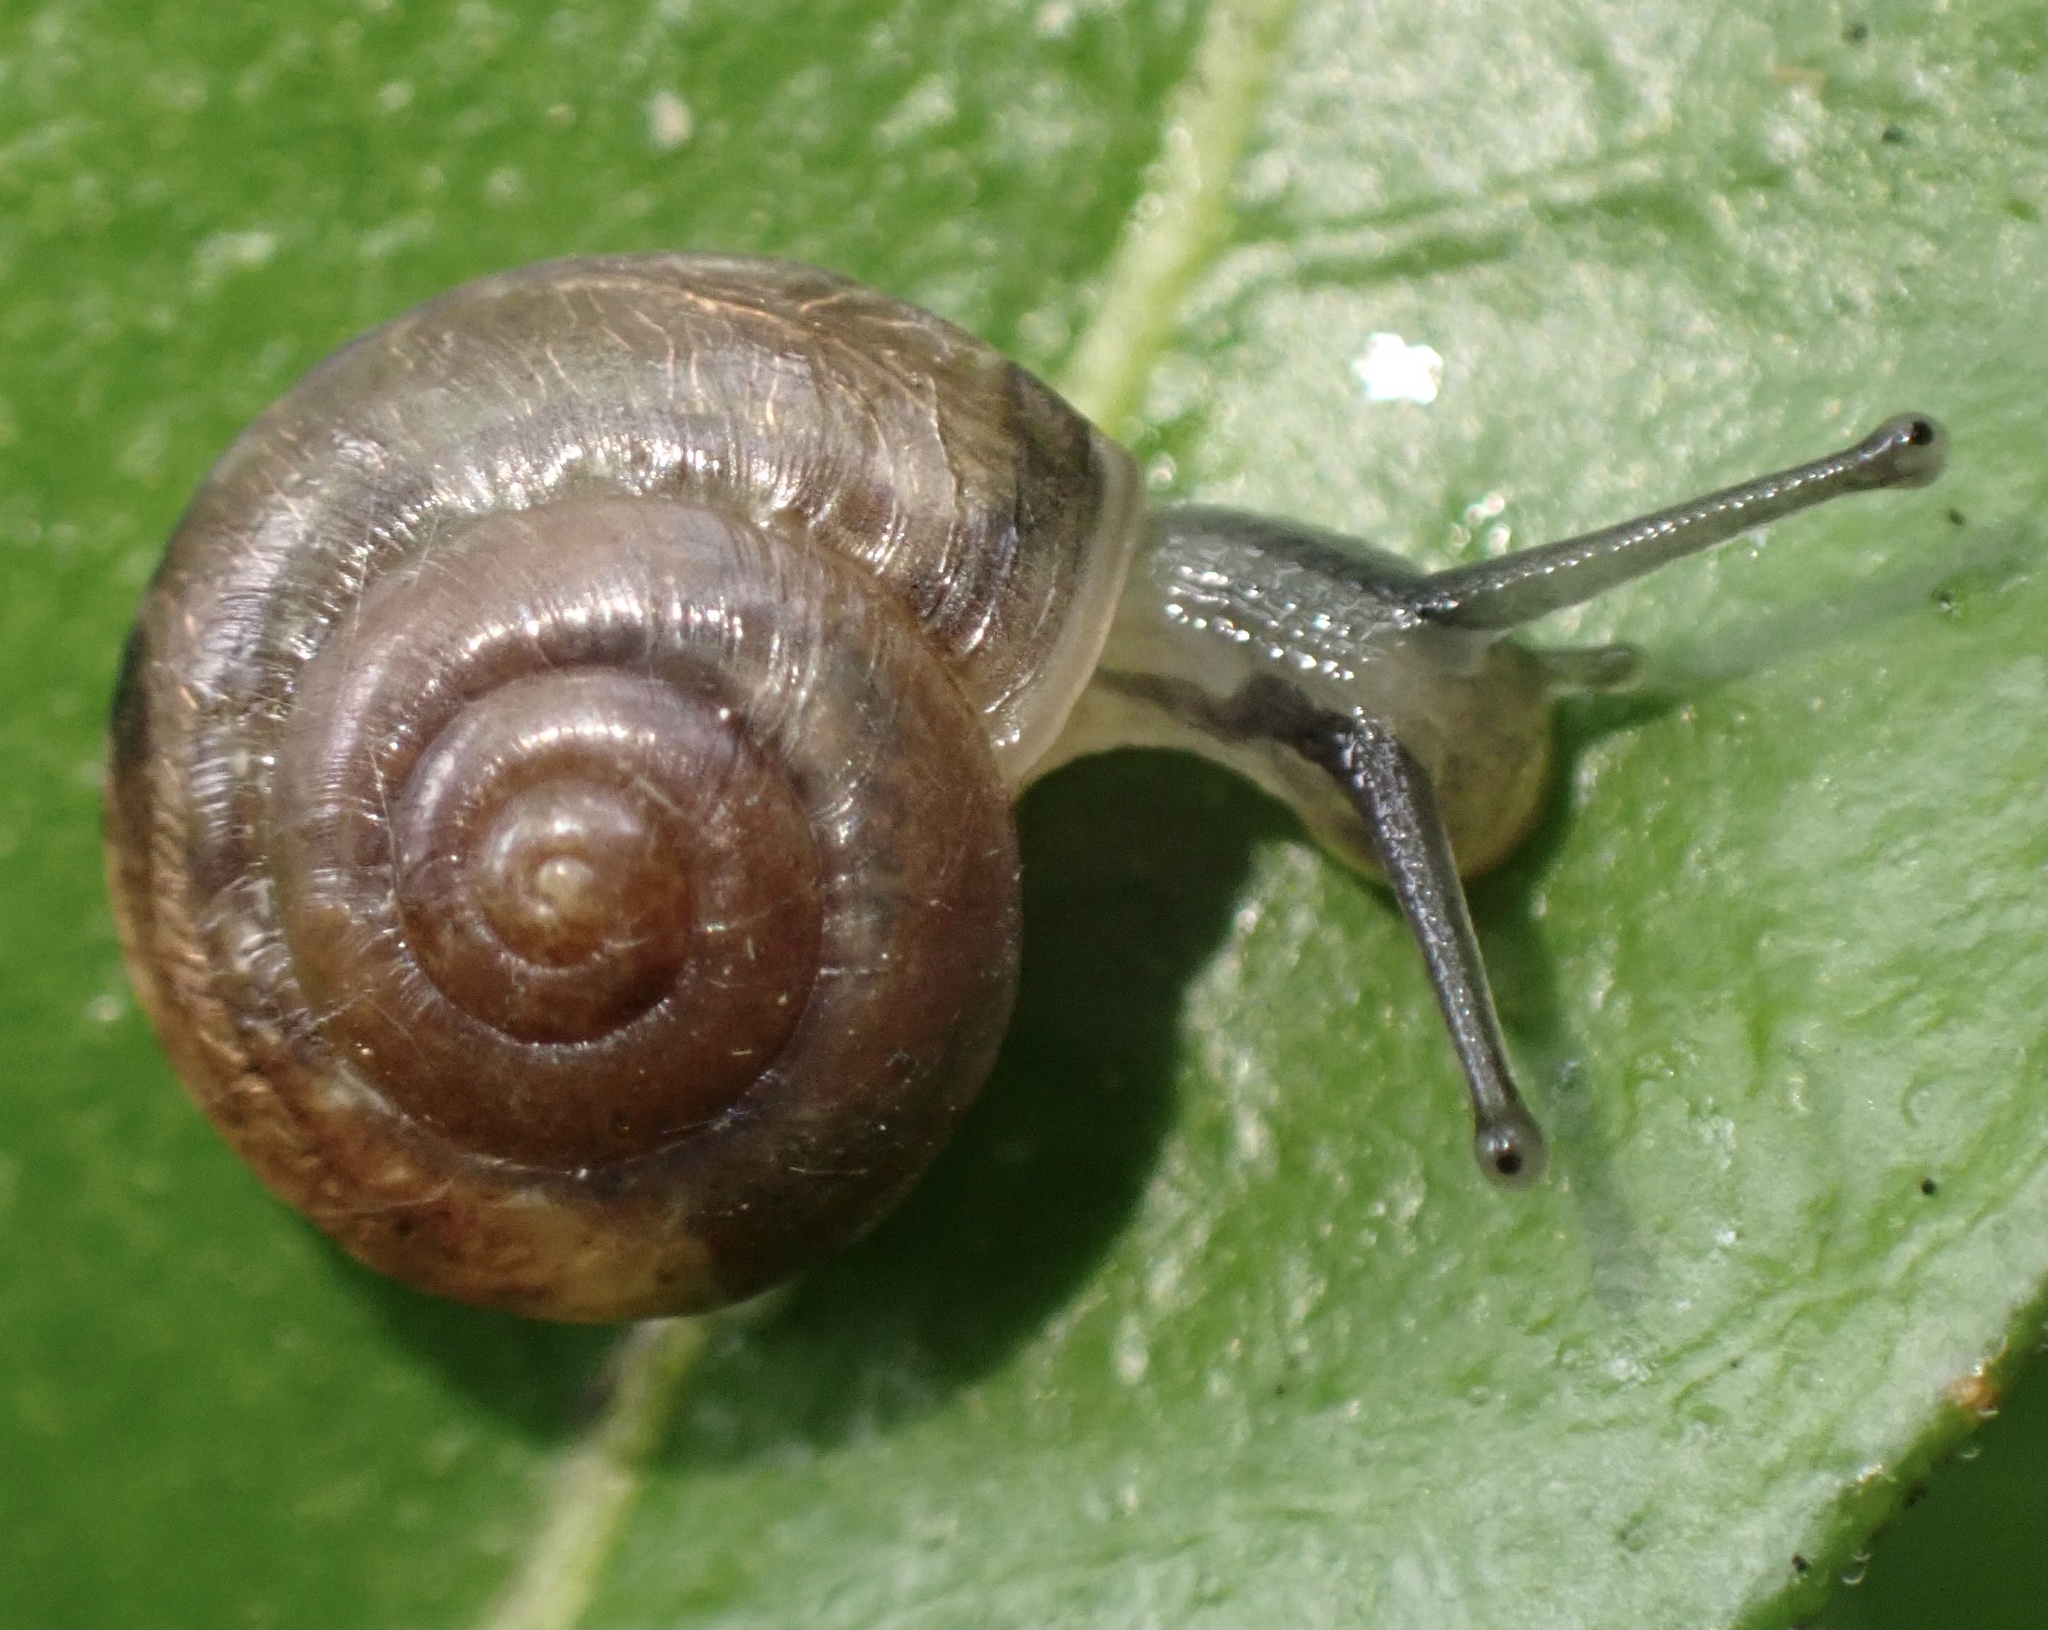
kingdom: Animalia
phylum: Mollusca
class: Gastropoda
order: Stylommatophora
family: Hygromiidae
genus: Trochulus
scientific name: Trochulus striolatus
